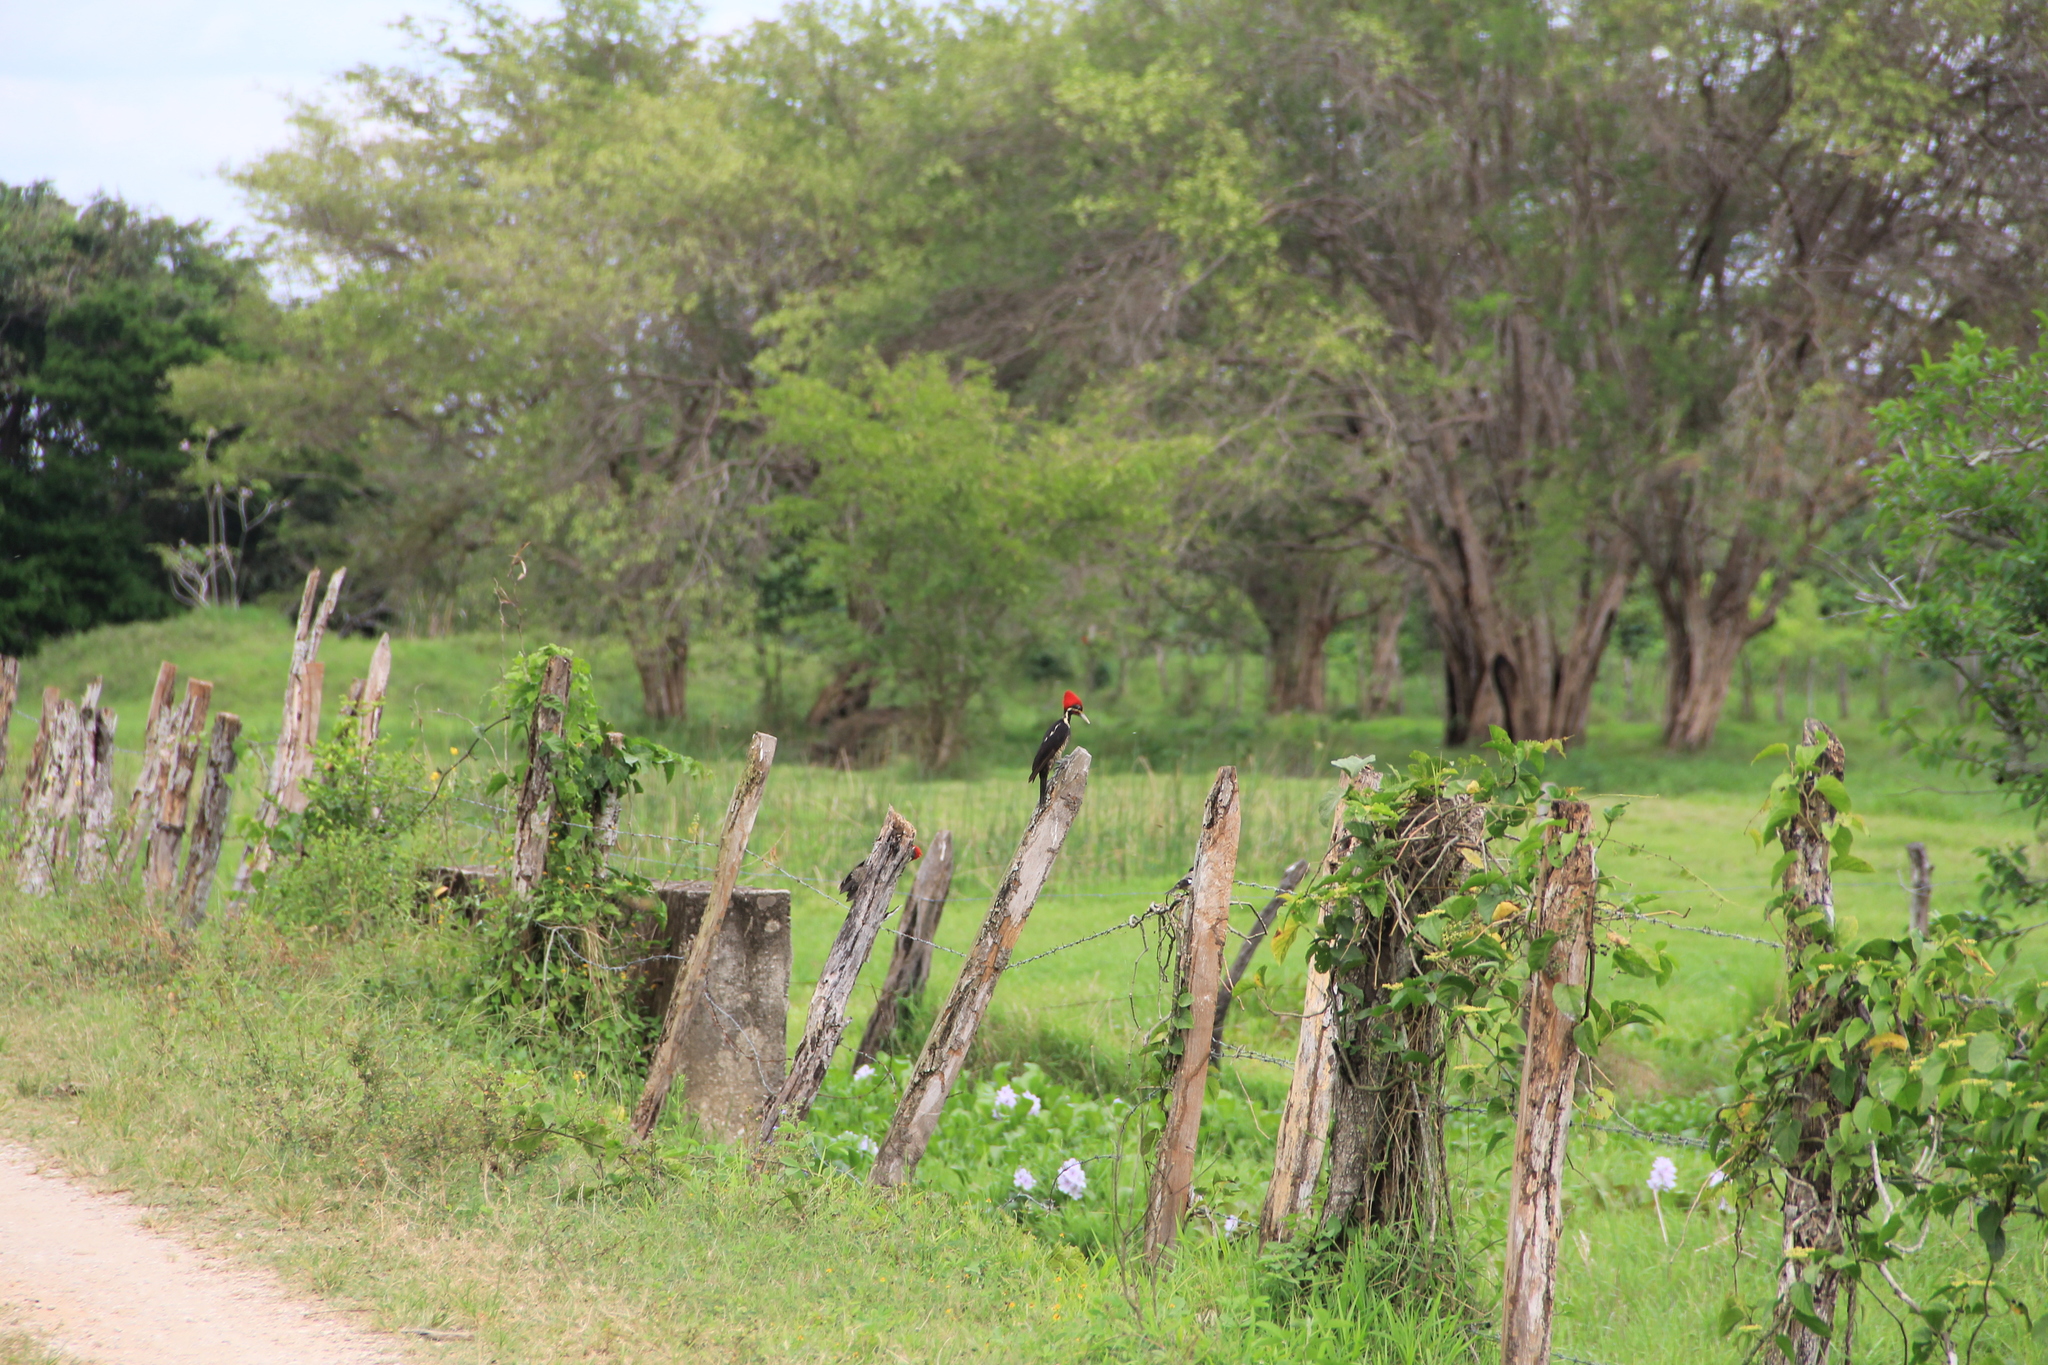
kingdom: Animalia
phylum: Chordata
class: Aves
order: Piciformes
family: Picidae
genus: Dryocopus
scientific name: Dryocopus lineatus
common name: Lineated woodpecker
